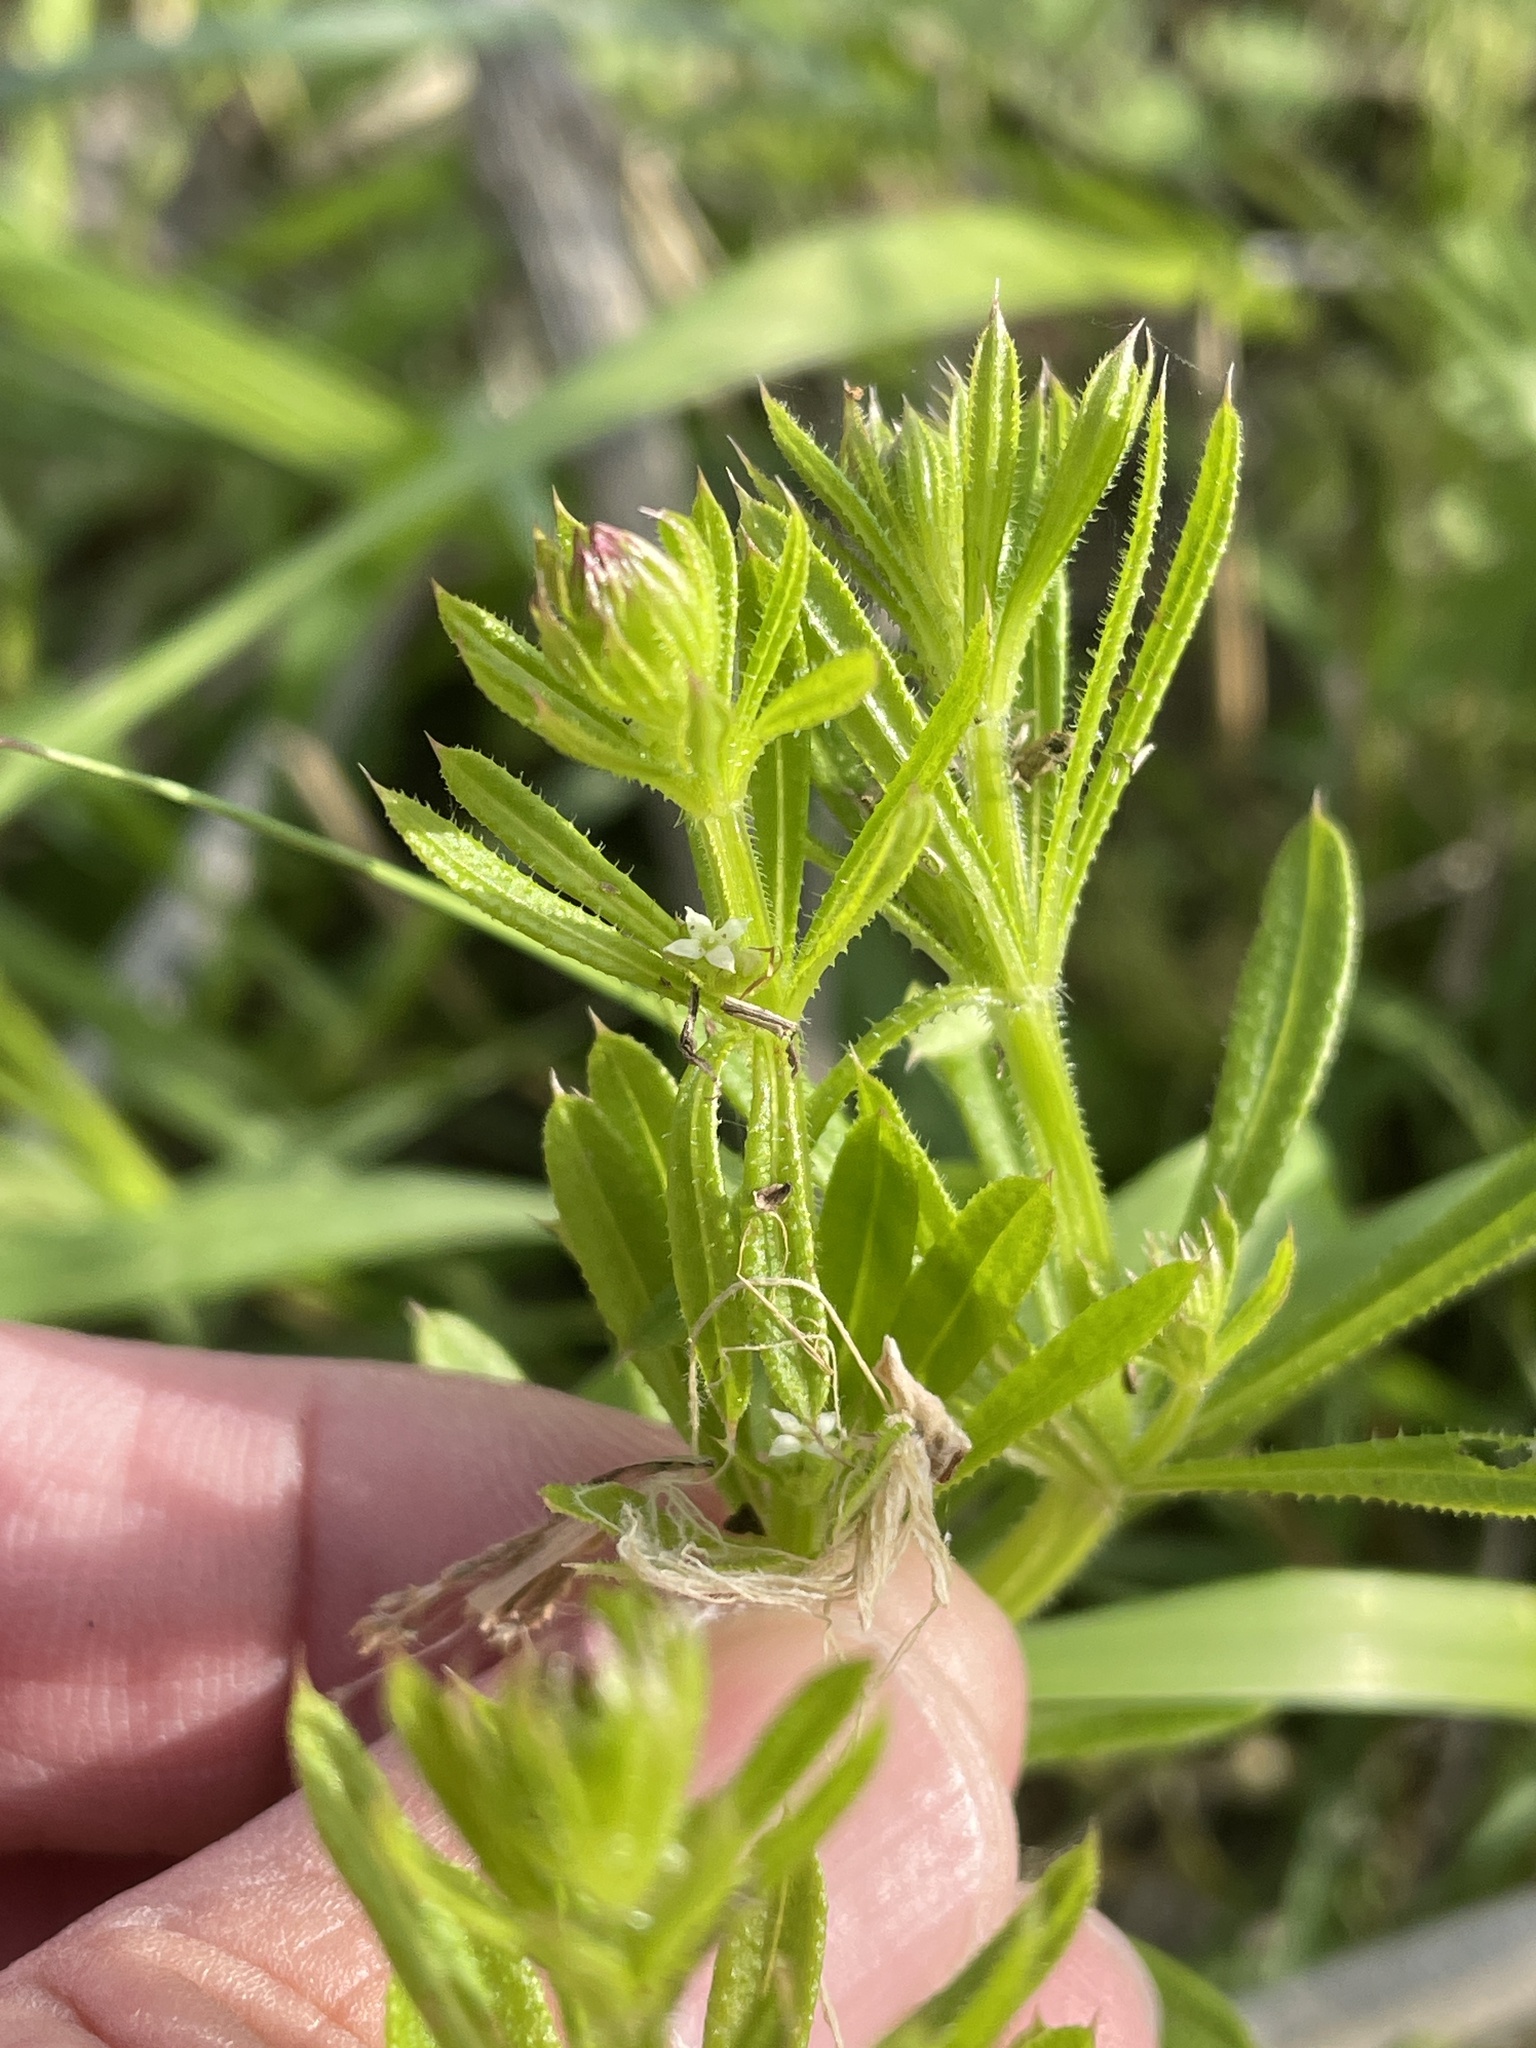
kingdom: Plantae
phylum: Tracheophyta
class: Magnoliopsida
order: Gentianales
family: Rubiaceae
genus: Galium
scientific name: Galium aparine
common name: Cleavers
